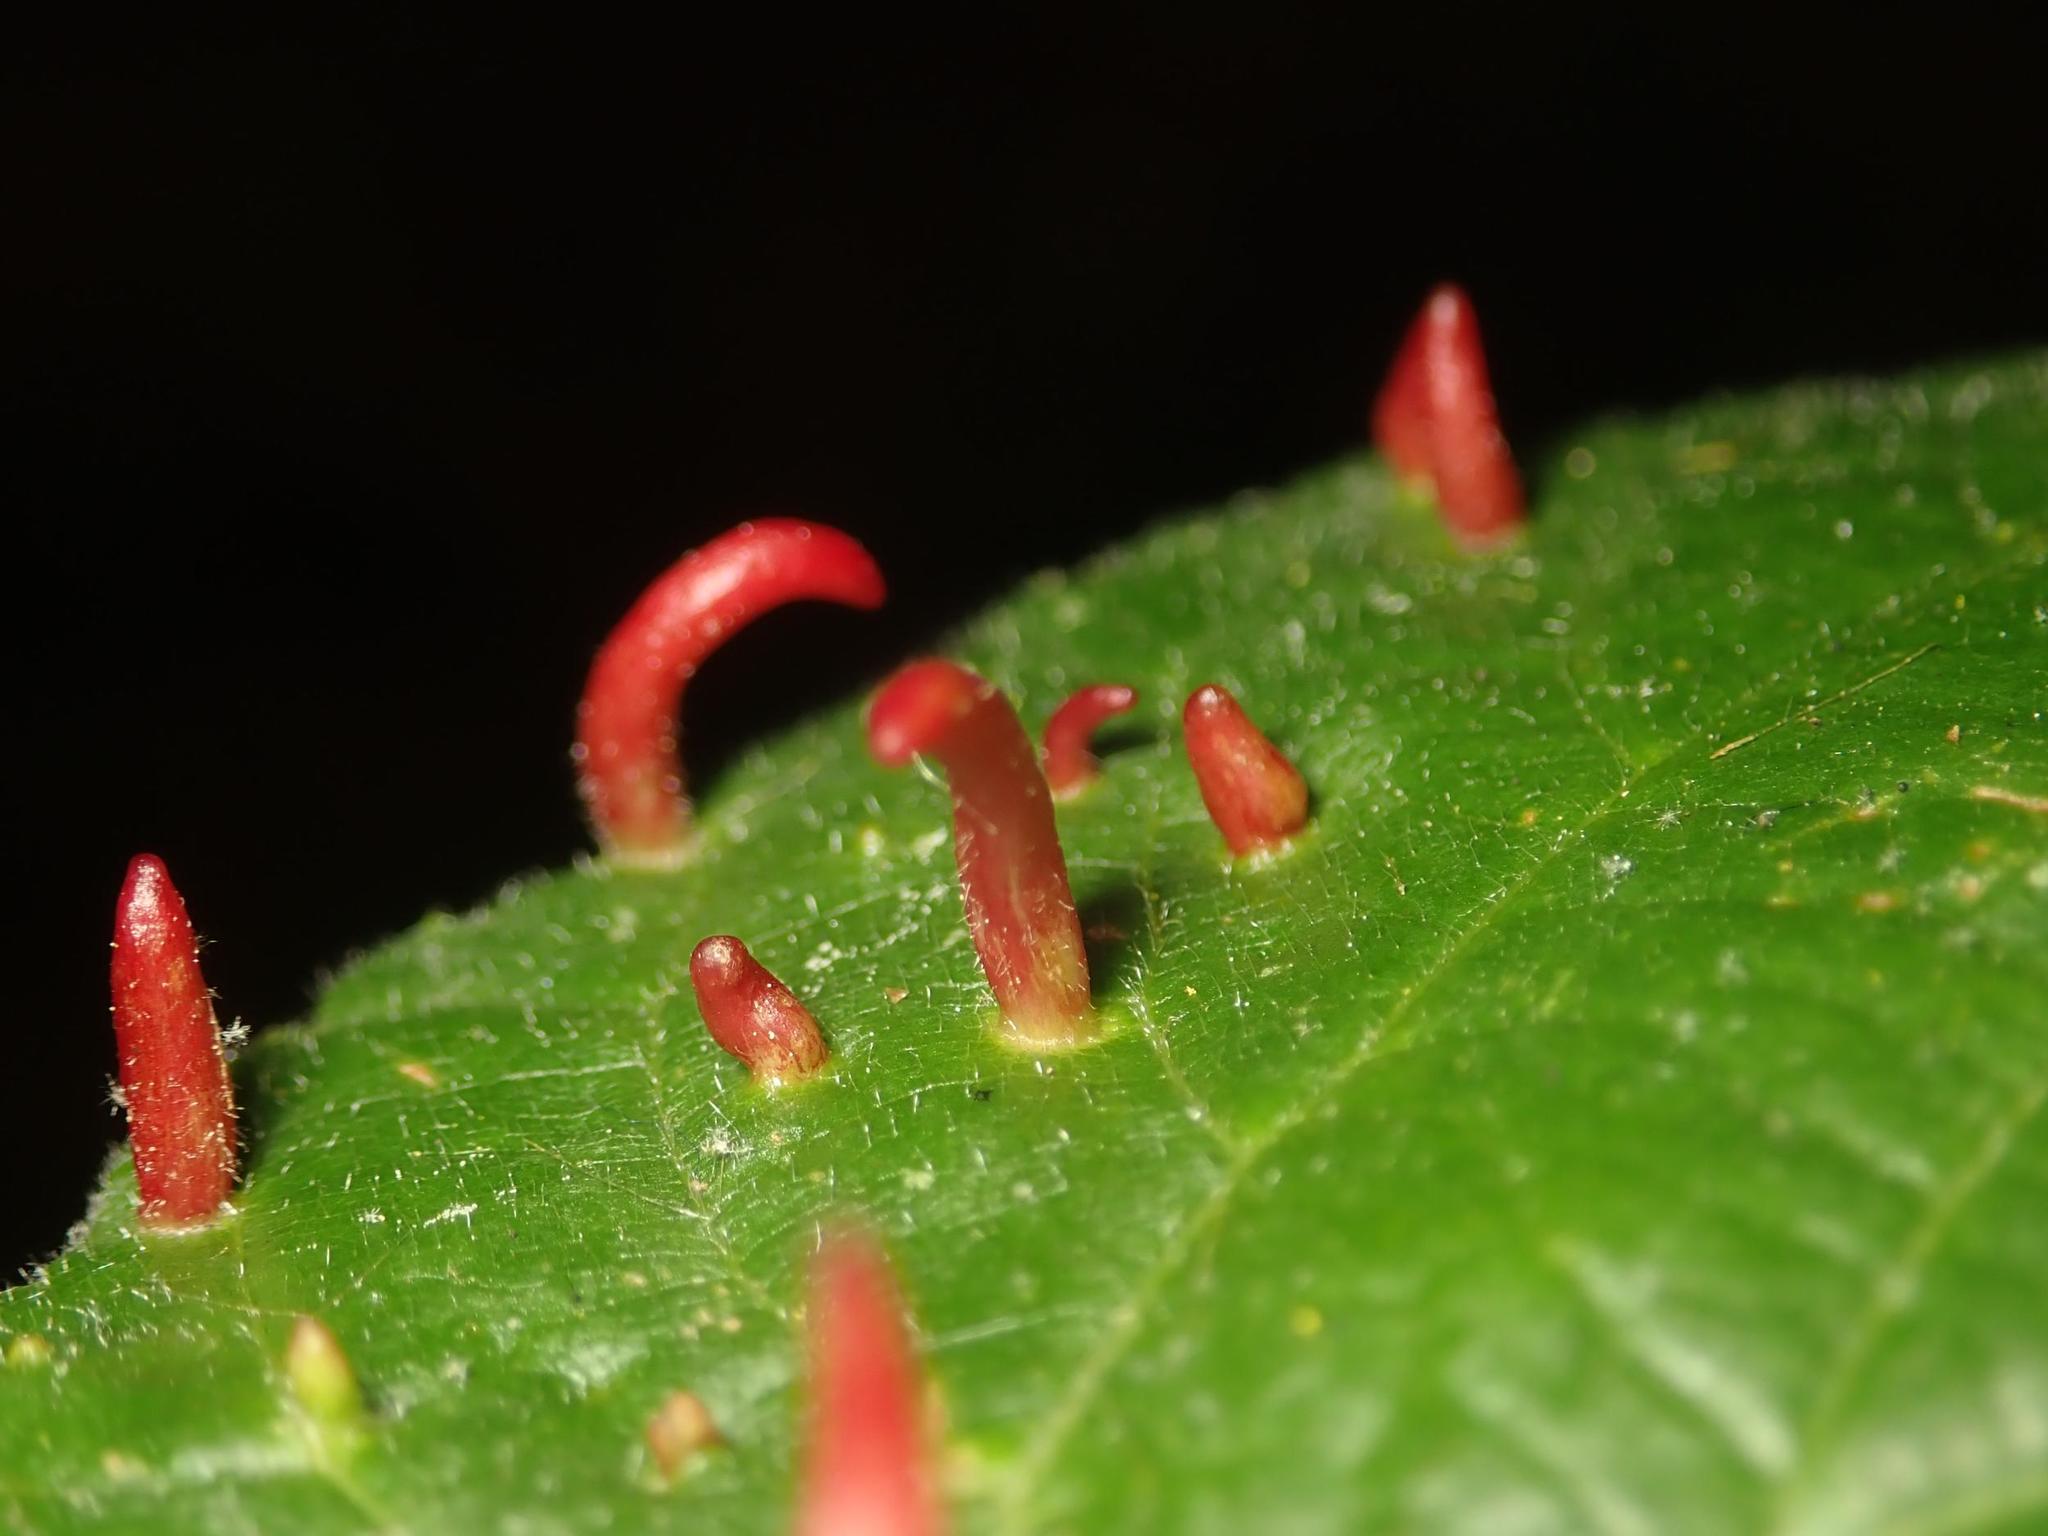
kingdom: Animalia
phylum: Arthropoda
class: Arachnida
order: Trombidiformes
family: Eriophyidae
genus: Eriophyes
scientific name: Eriophyes tiliae
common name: Red nail gall mite
